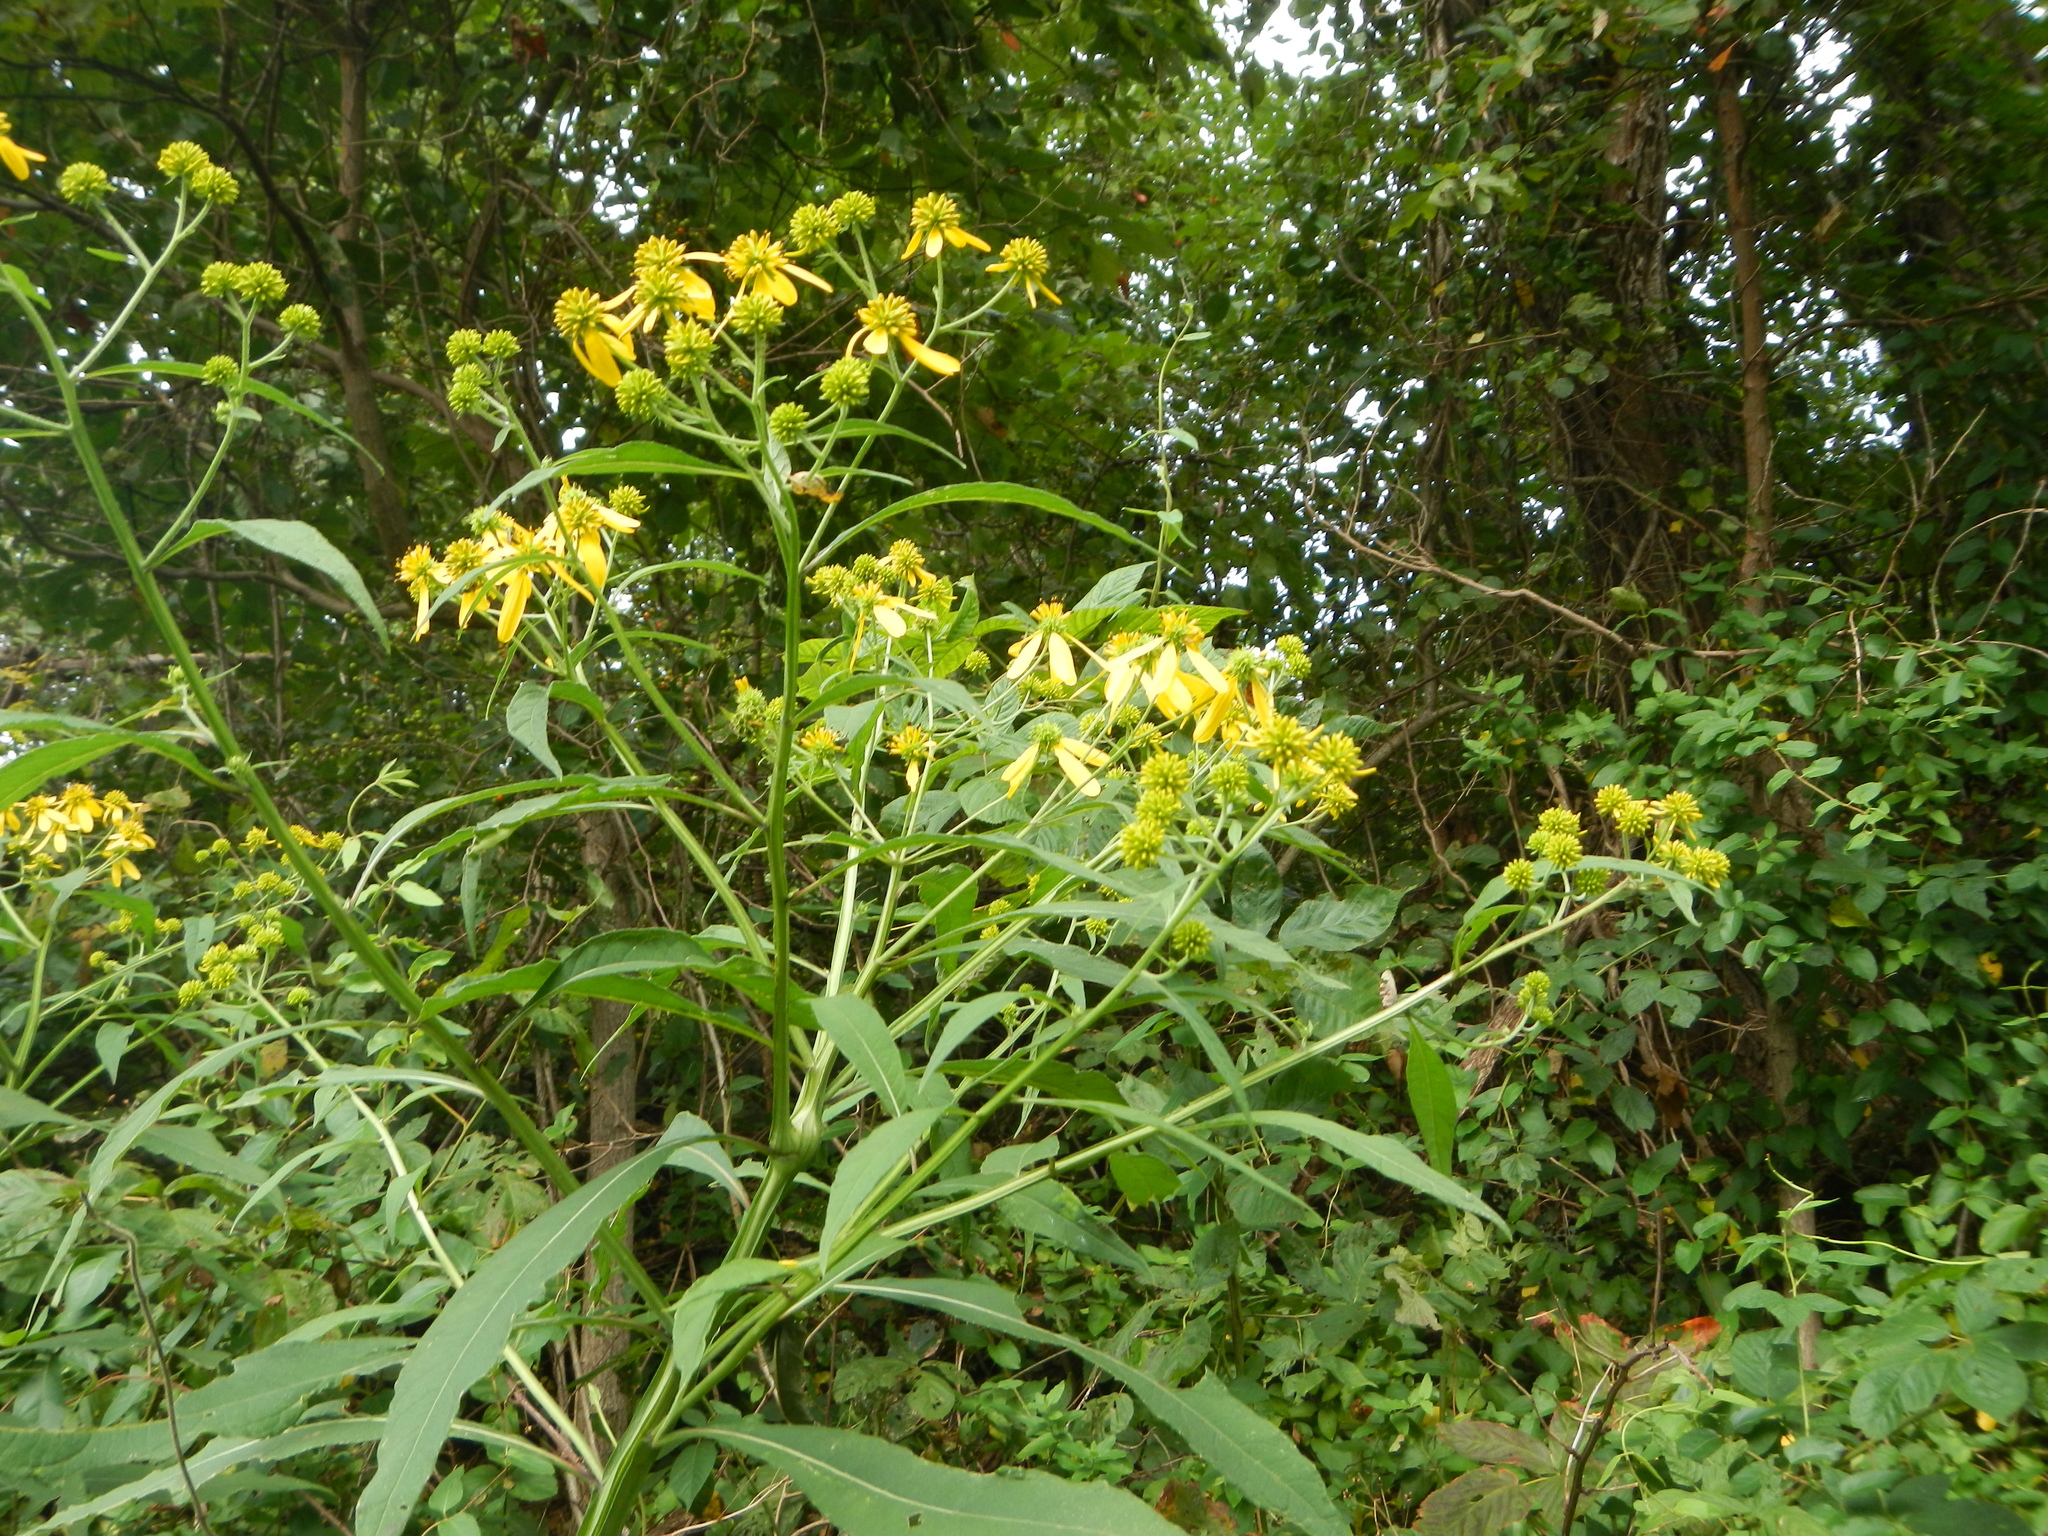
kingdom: Plantae
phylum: Tracheophyta
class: Magnoliopsida
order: Asterales
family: Asteraceae
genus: Verbesina
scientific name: Verbesina alternifolia
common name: Wingstem
